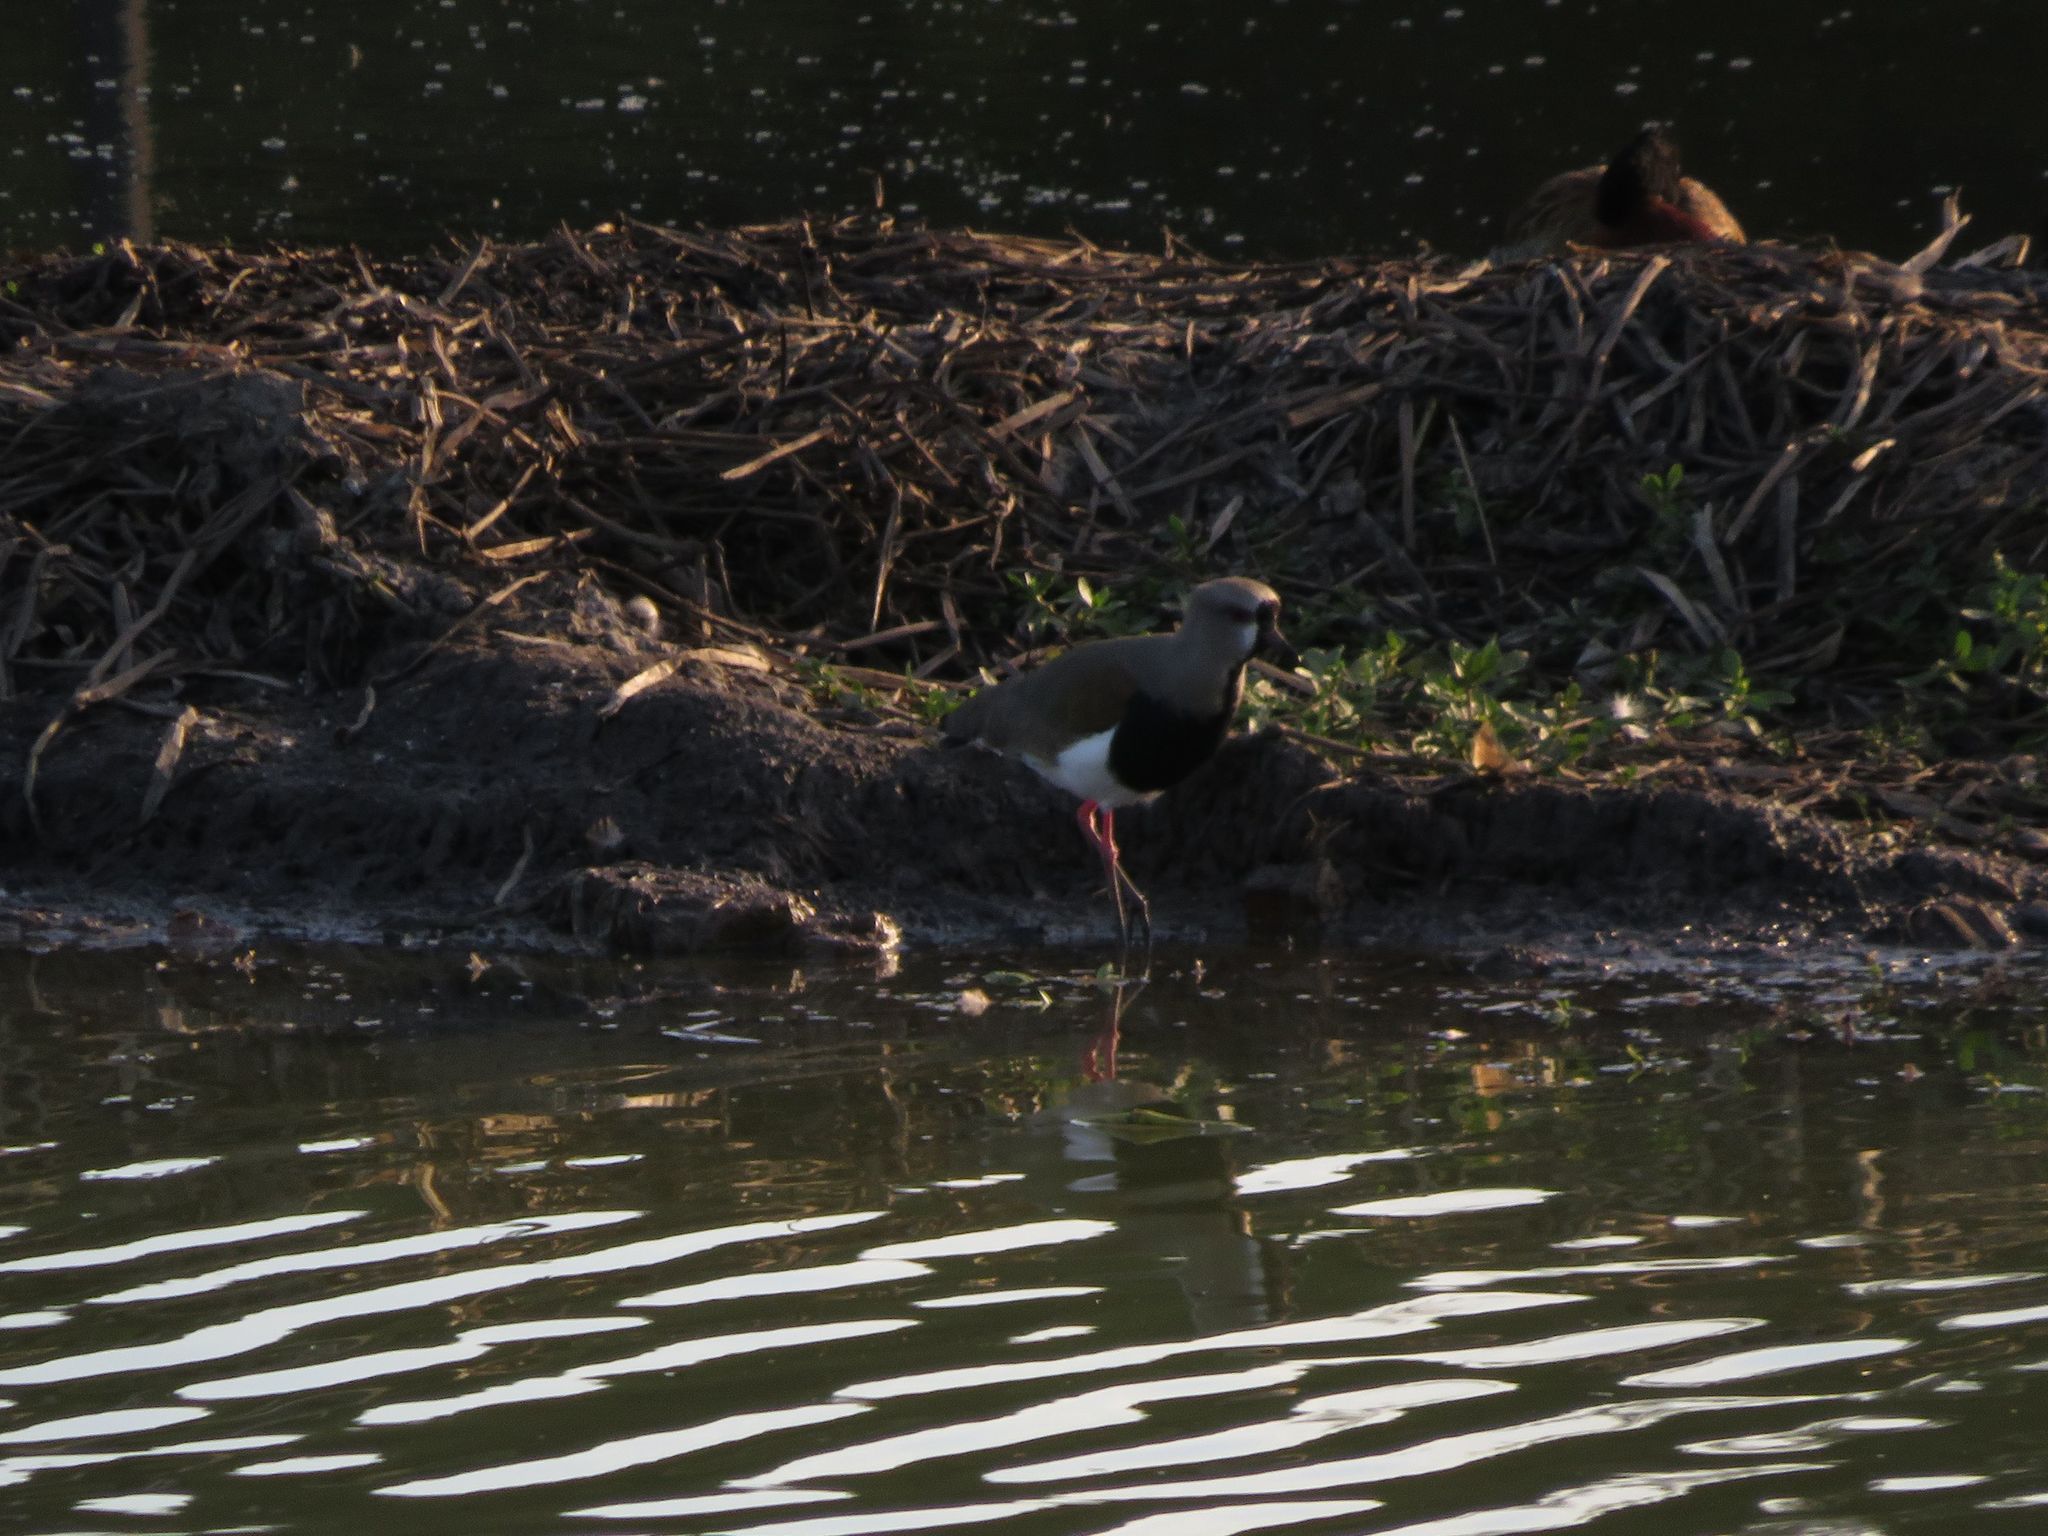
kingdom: Animalia
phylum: Chordata
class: Aves
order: Charadriiformes
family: Charadriidae
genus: Vanellus
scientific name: Vanellus chilensis
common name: Southern lapwing
